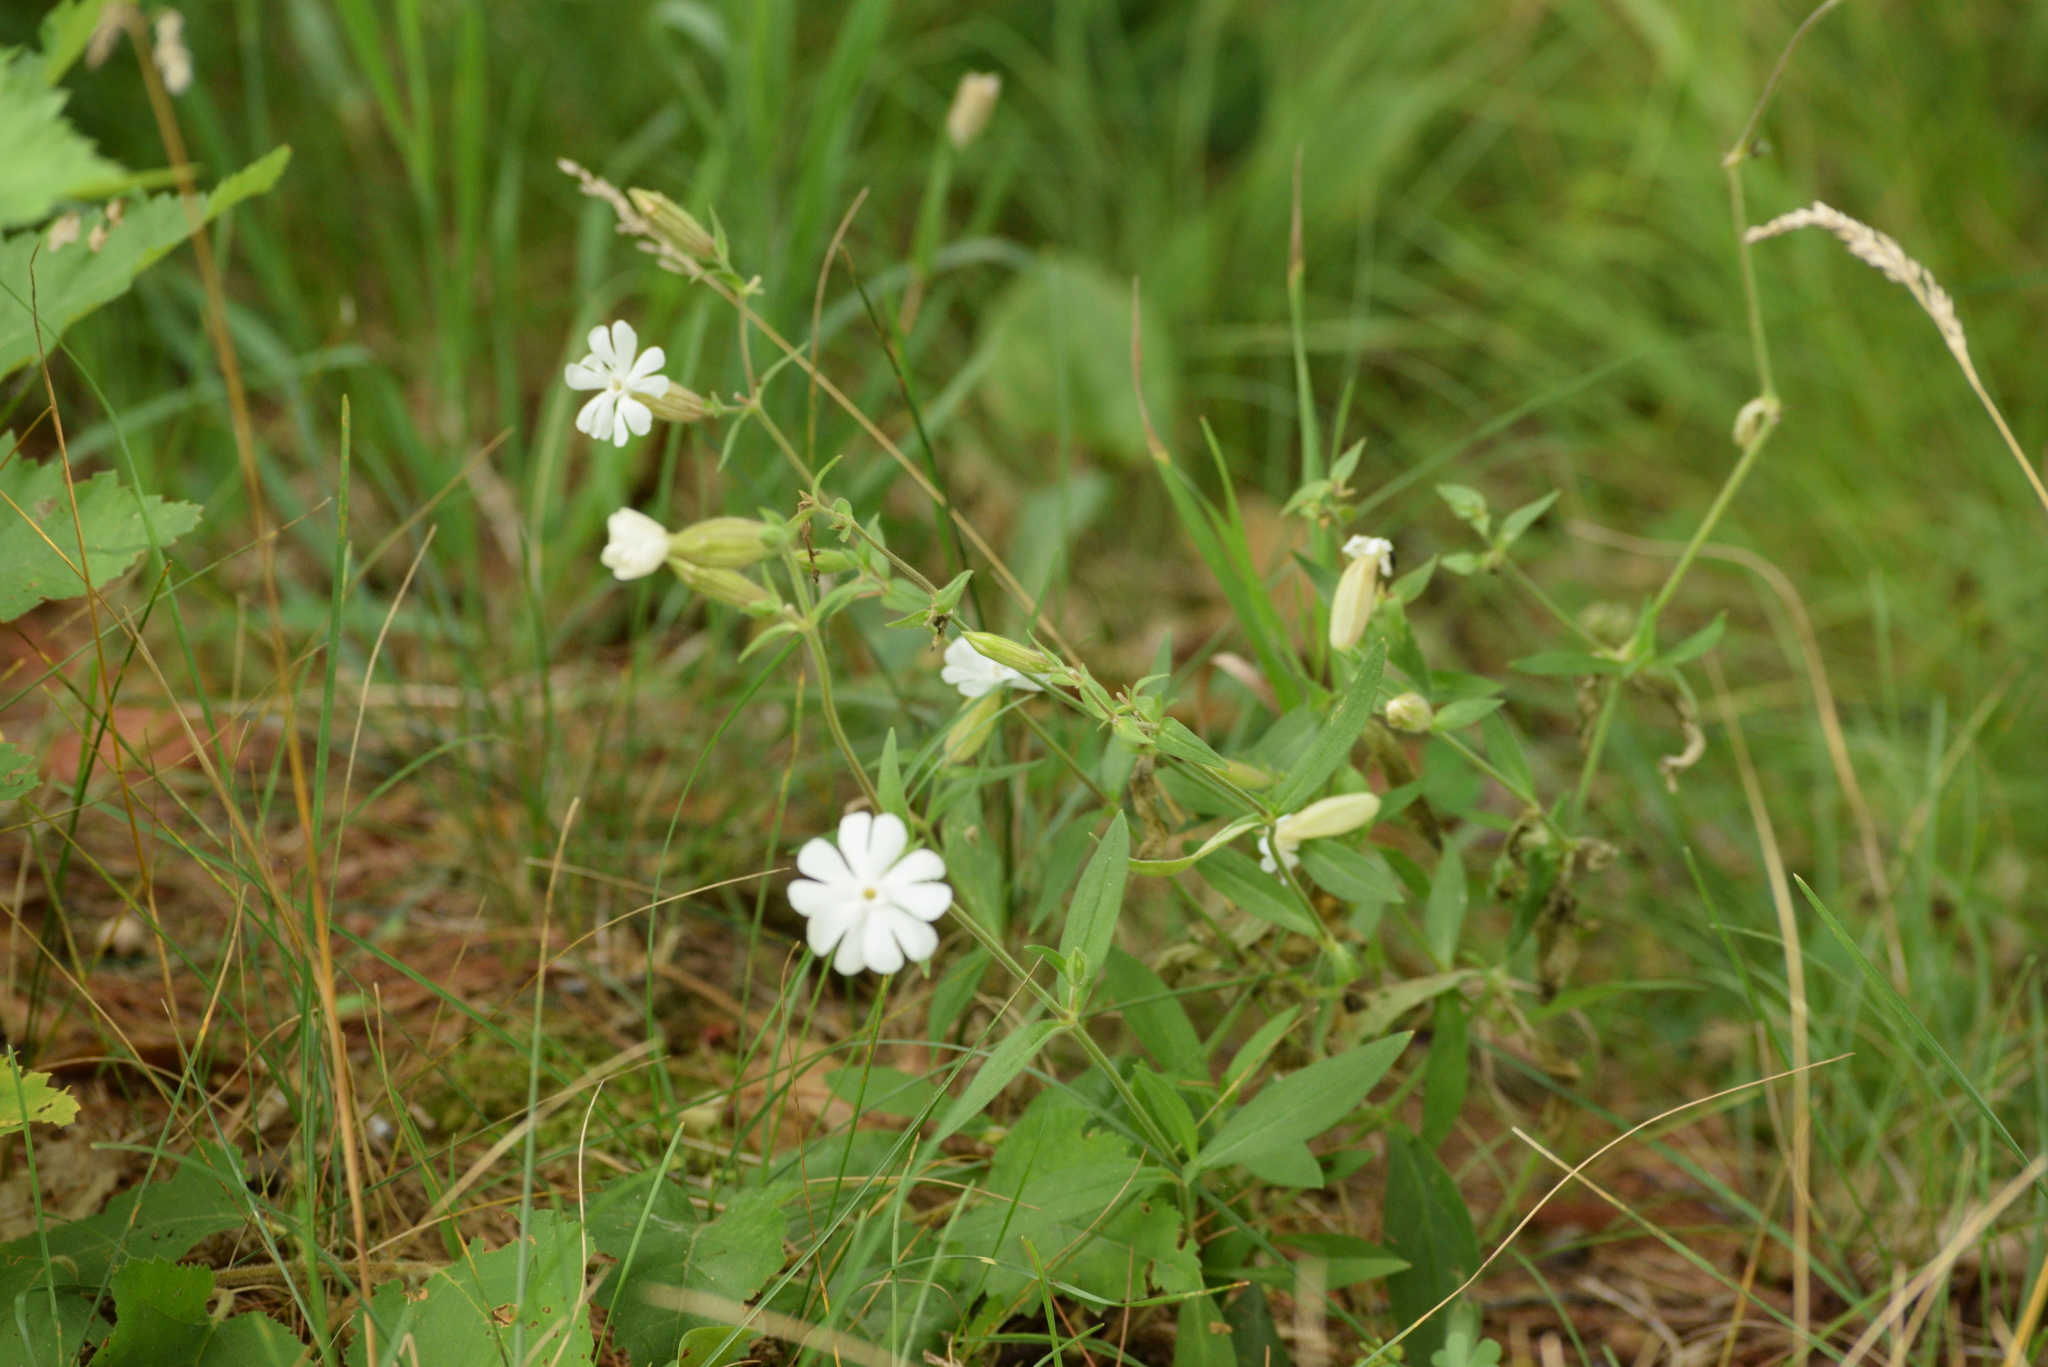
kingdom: Plantae
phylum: Tracheophyta
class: Magnoliopsida
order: Caryophyllales
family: Caryophyllaceae
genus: Silene
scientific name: Silene latifolia
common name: White campion
